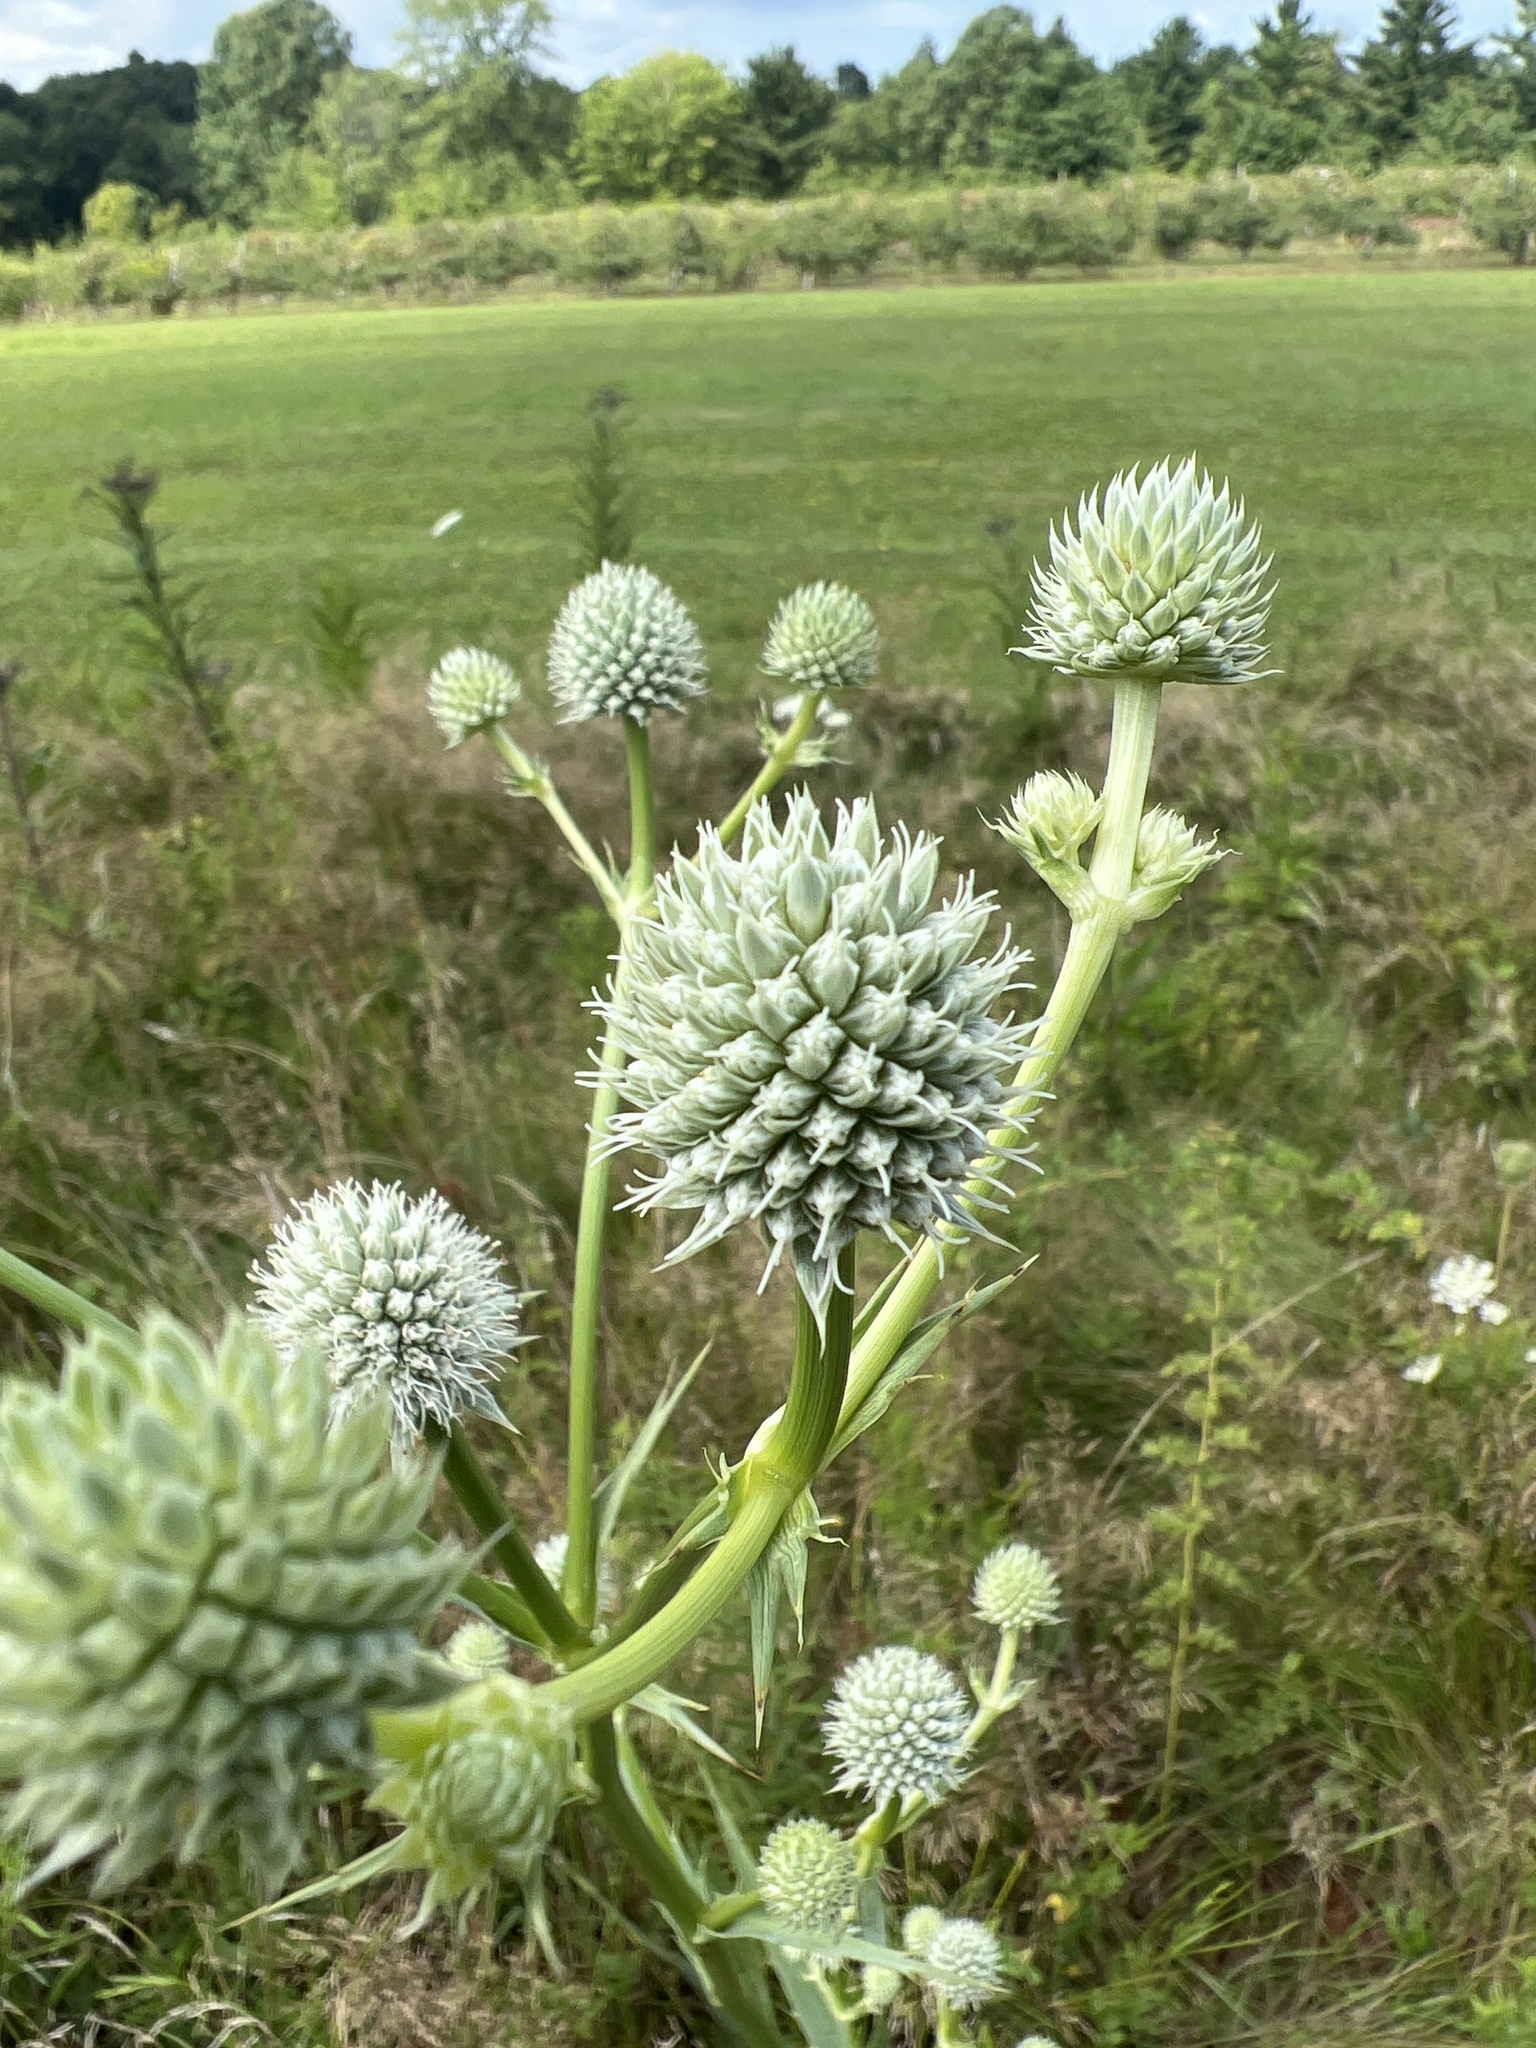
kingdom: Plantae
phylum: Tracheophyta
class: Magnoliopsida
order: Apiales
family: Apiaceae
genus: Eryngium
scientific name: Eryngium yuccifolium
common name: Button eryngo
